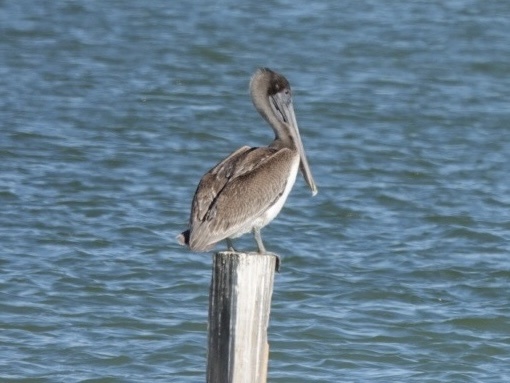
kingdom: Animalia
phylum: Chordata
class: Aves
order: Pelecaniformes
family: Pelecanidae
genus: Pelecanus
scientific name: Pelecanus occidentalis
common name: Brown pelican
